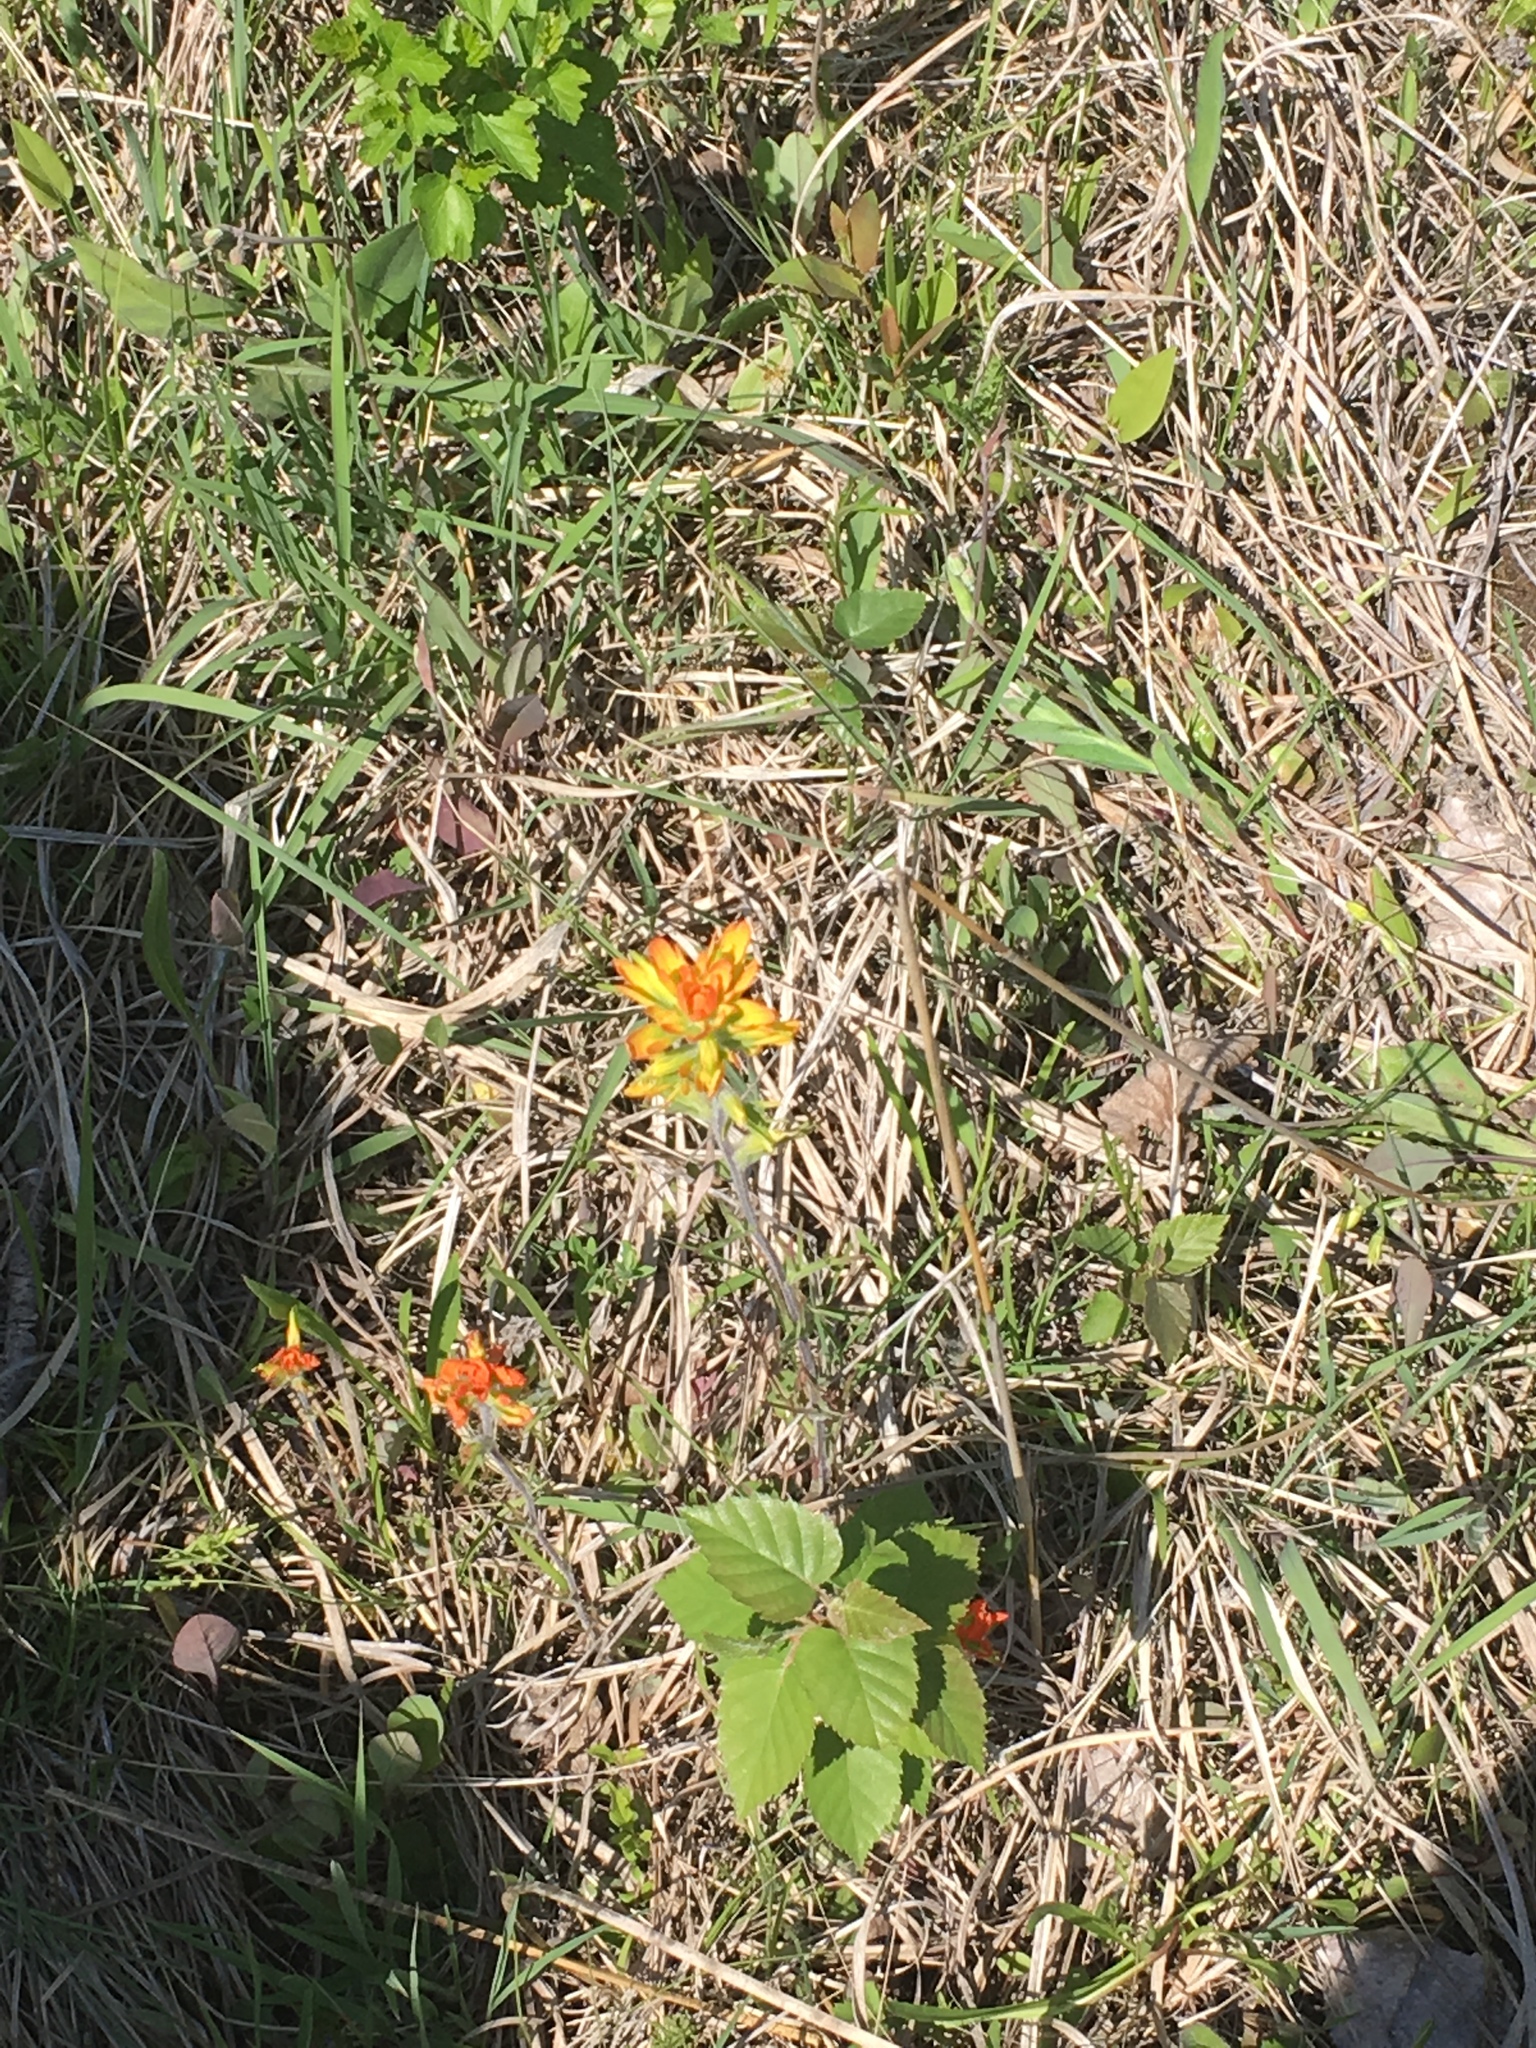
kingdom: Plantae
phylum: Tracheophyta
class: Magnoliopsida
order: Lamiales
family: Orobanchaceae
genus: Castilleja
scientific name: Castilleja coccinea
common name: Scarlet paintbrush
